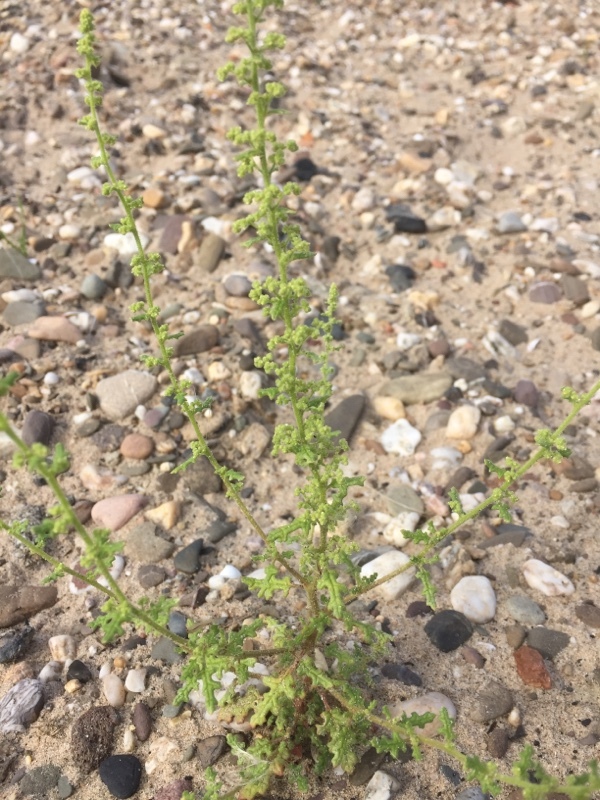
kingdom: Plantae
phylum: Tracheophyta
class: Magnoliopsida
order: Caryophyllales
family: Amaranthaceae
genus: Dysphania
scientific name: Dysphania botrys
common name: Feather-geranium
